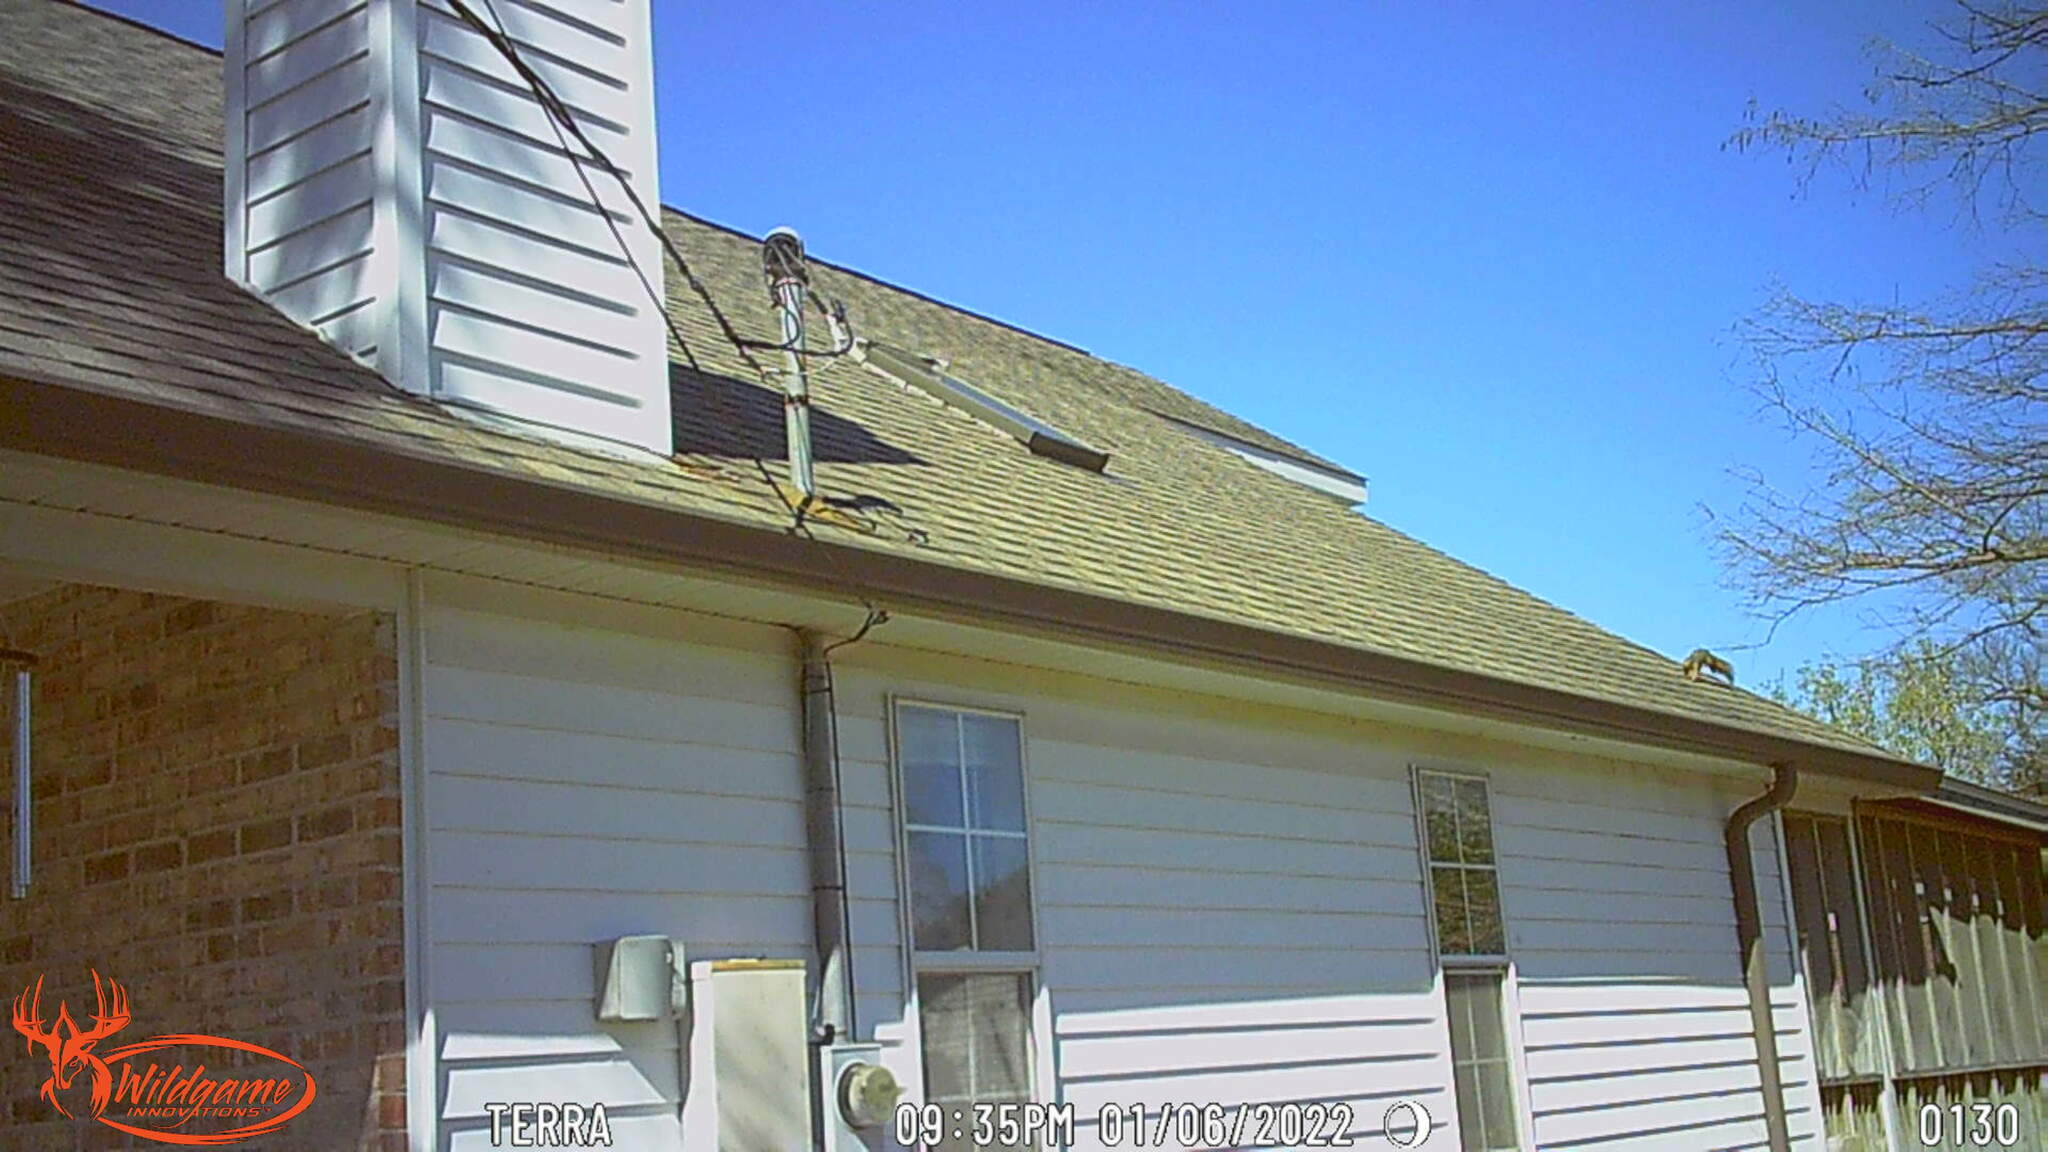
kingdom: Animalia
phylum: Chordata
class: Mammalia
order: Rodentia
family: Sciuridae
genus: Sciurus
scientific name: Sciurus niger
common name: Fox squirrel
